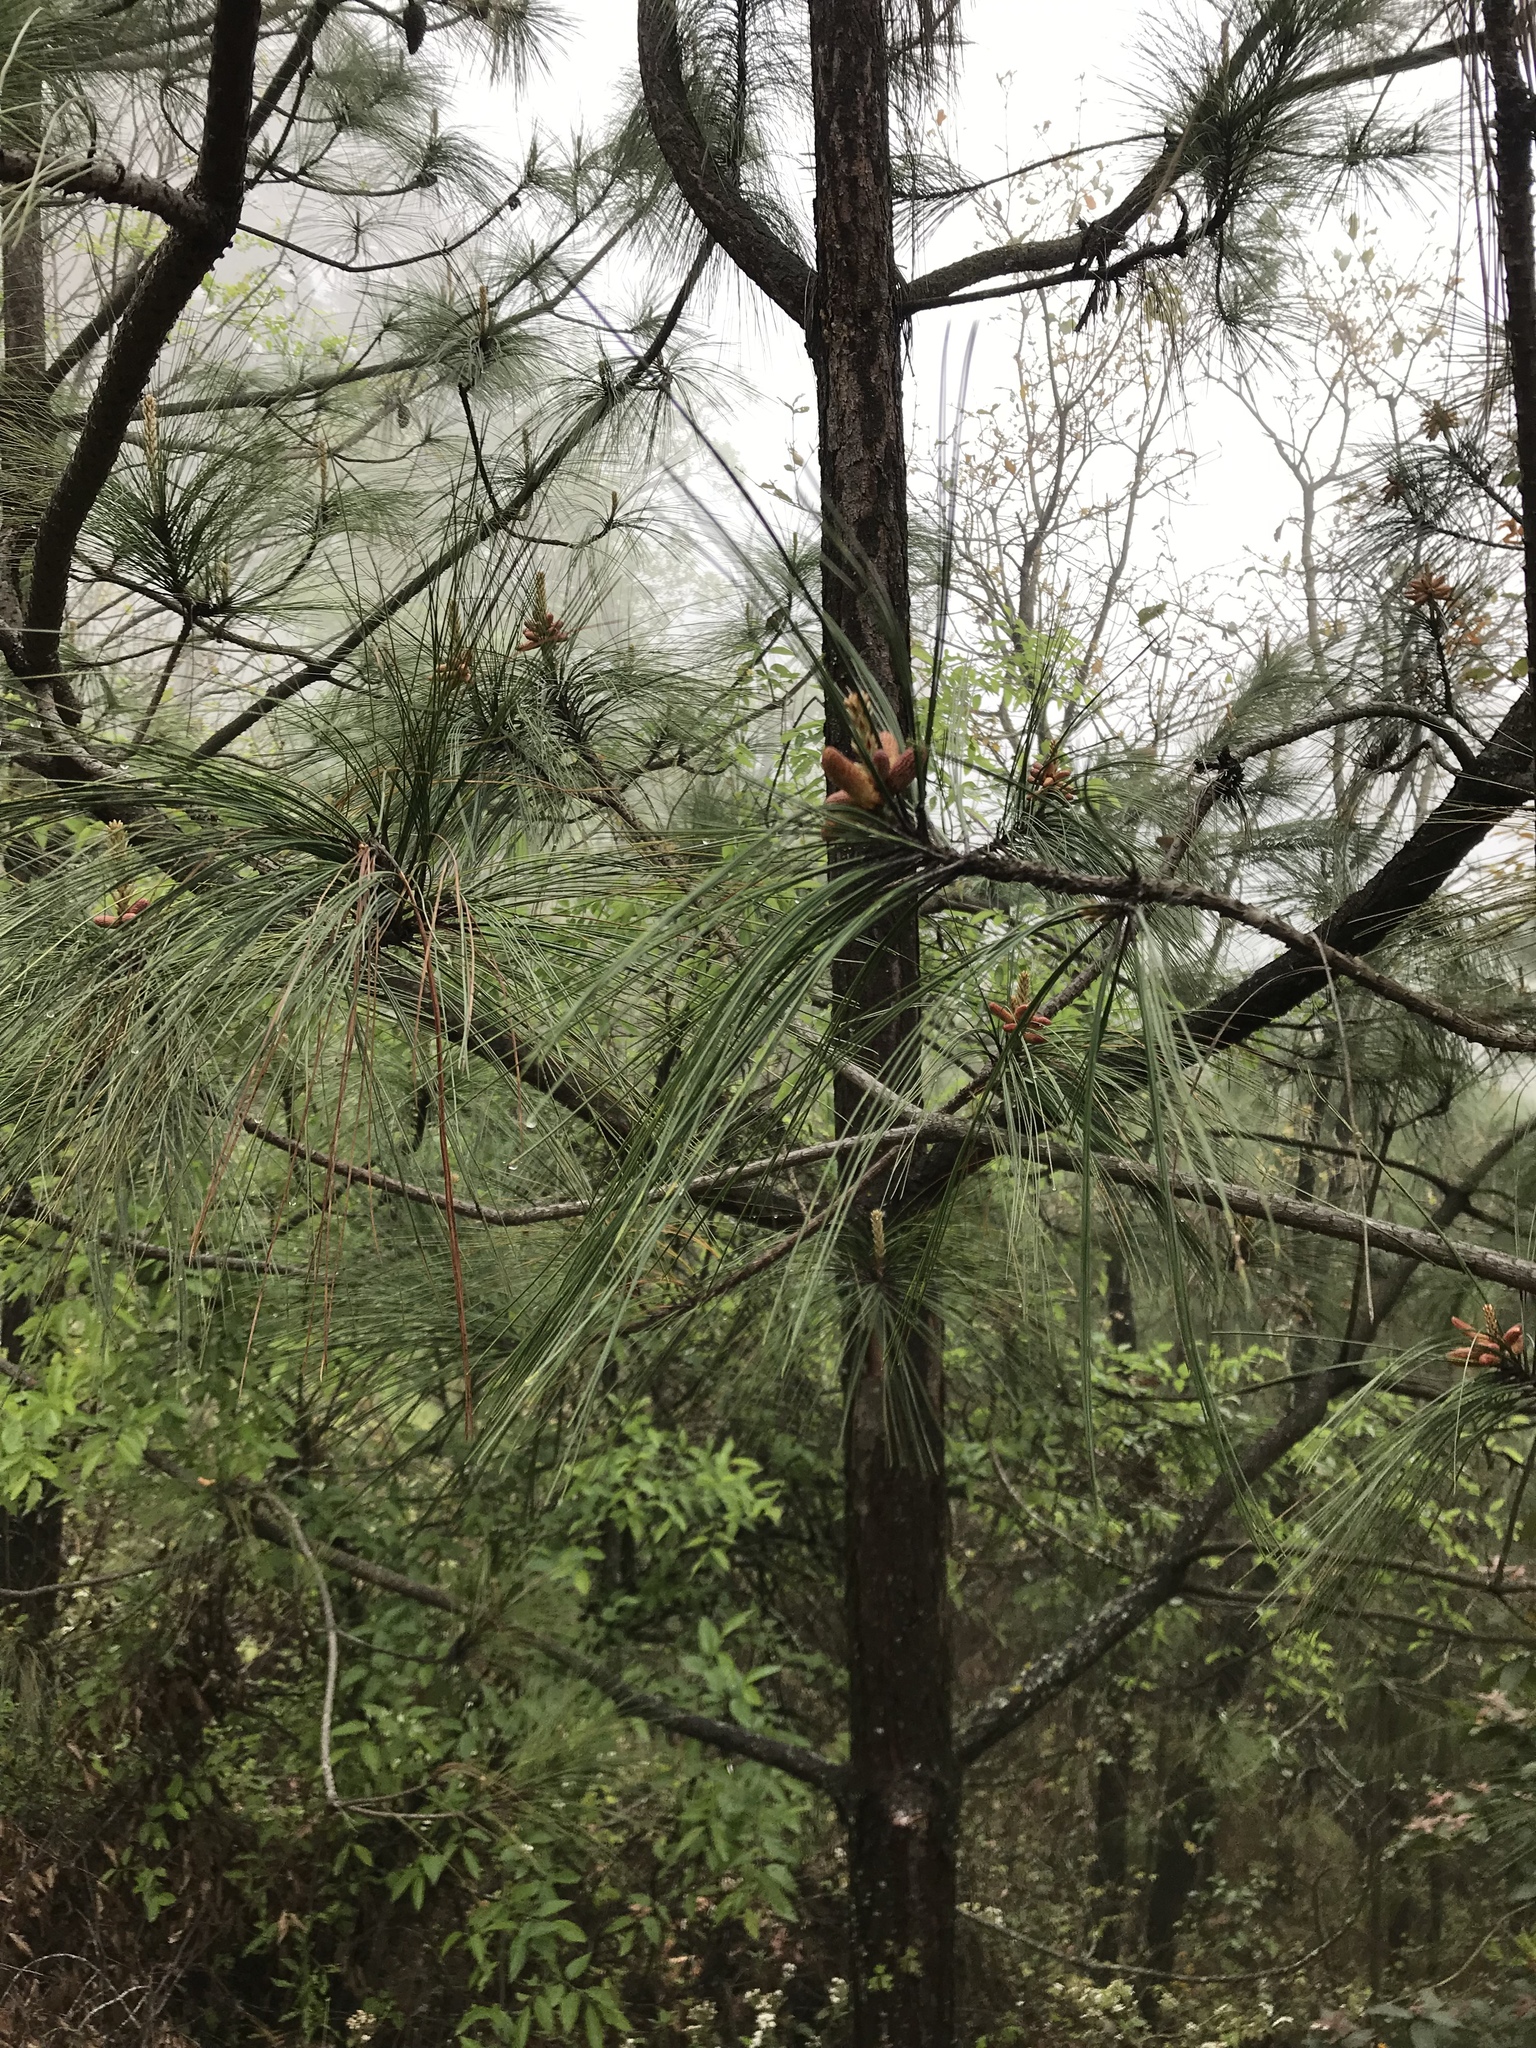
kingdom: Plantae
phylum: Tracheophyta
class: Pinopsida
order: Pinales
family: Pinaceae
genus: Pinus
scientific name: Pinus pseudostrobus
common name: False weymouth pine
